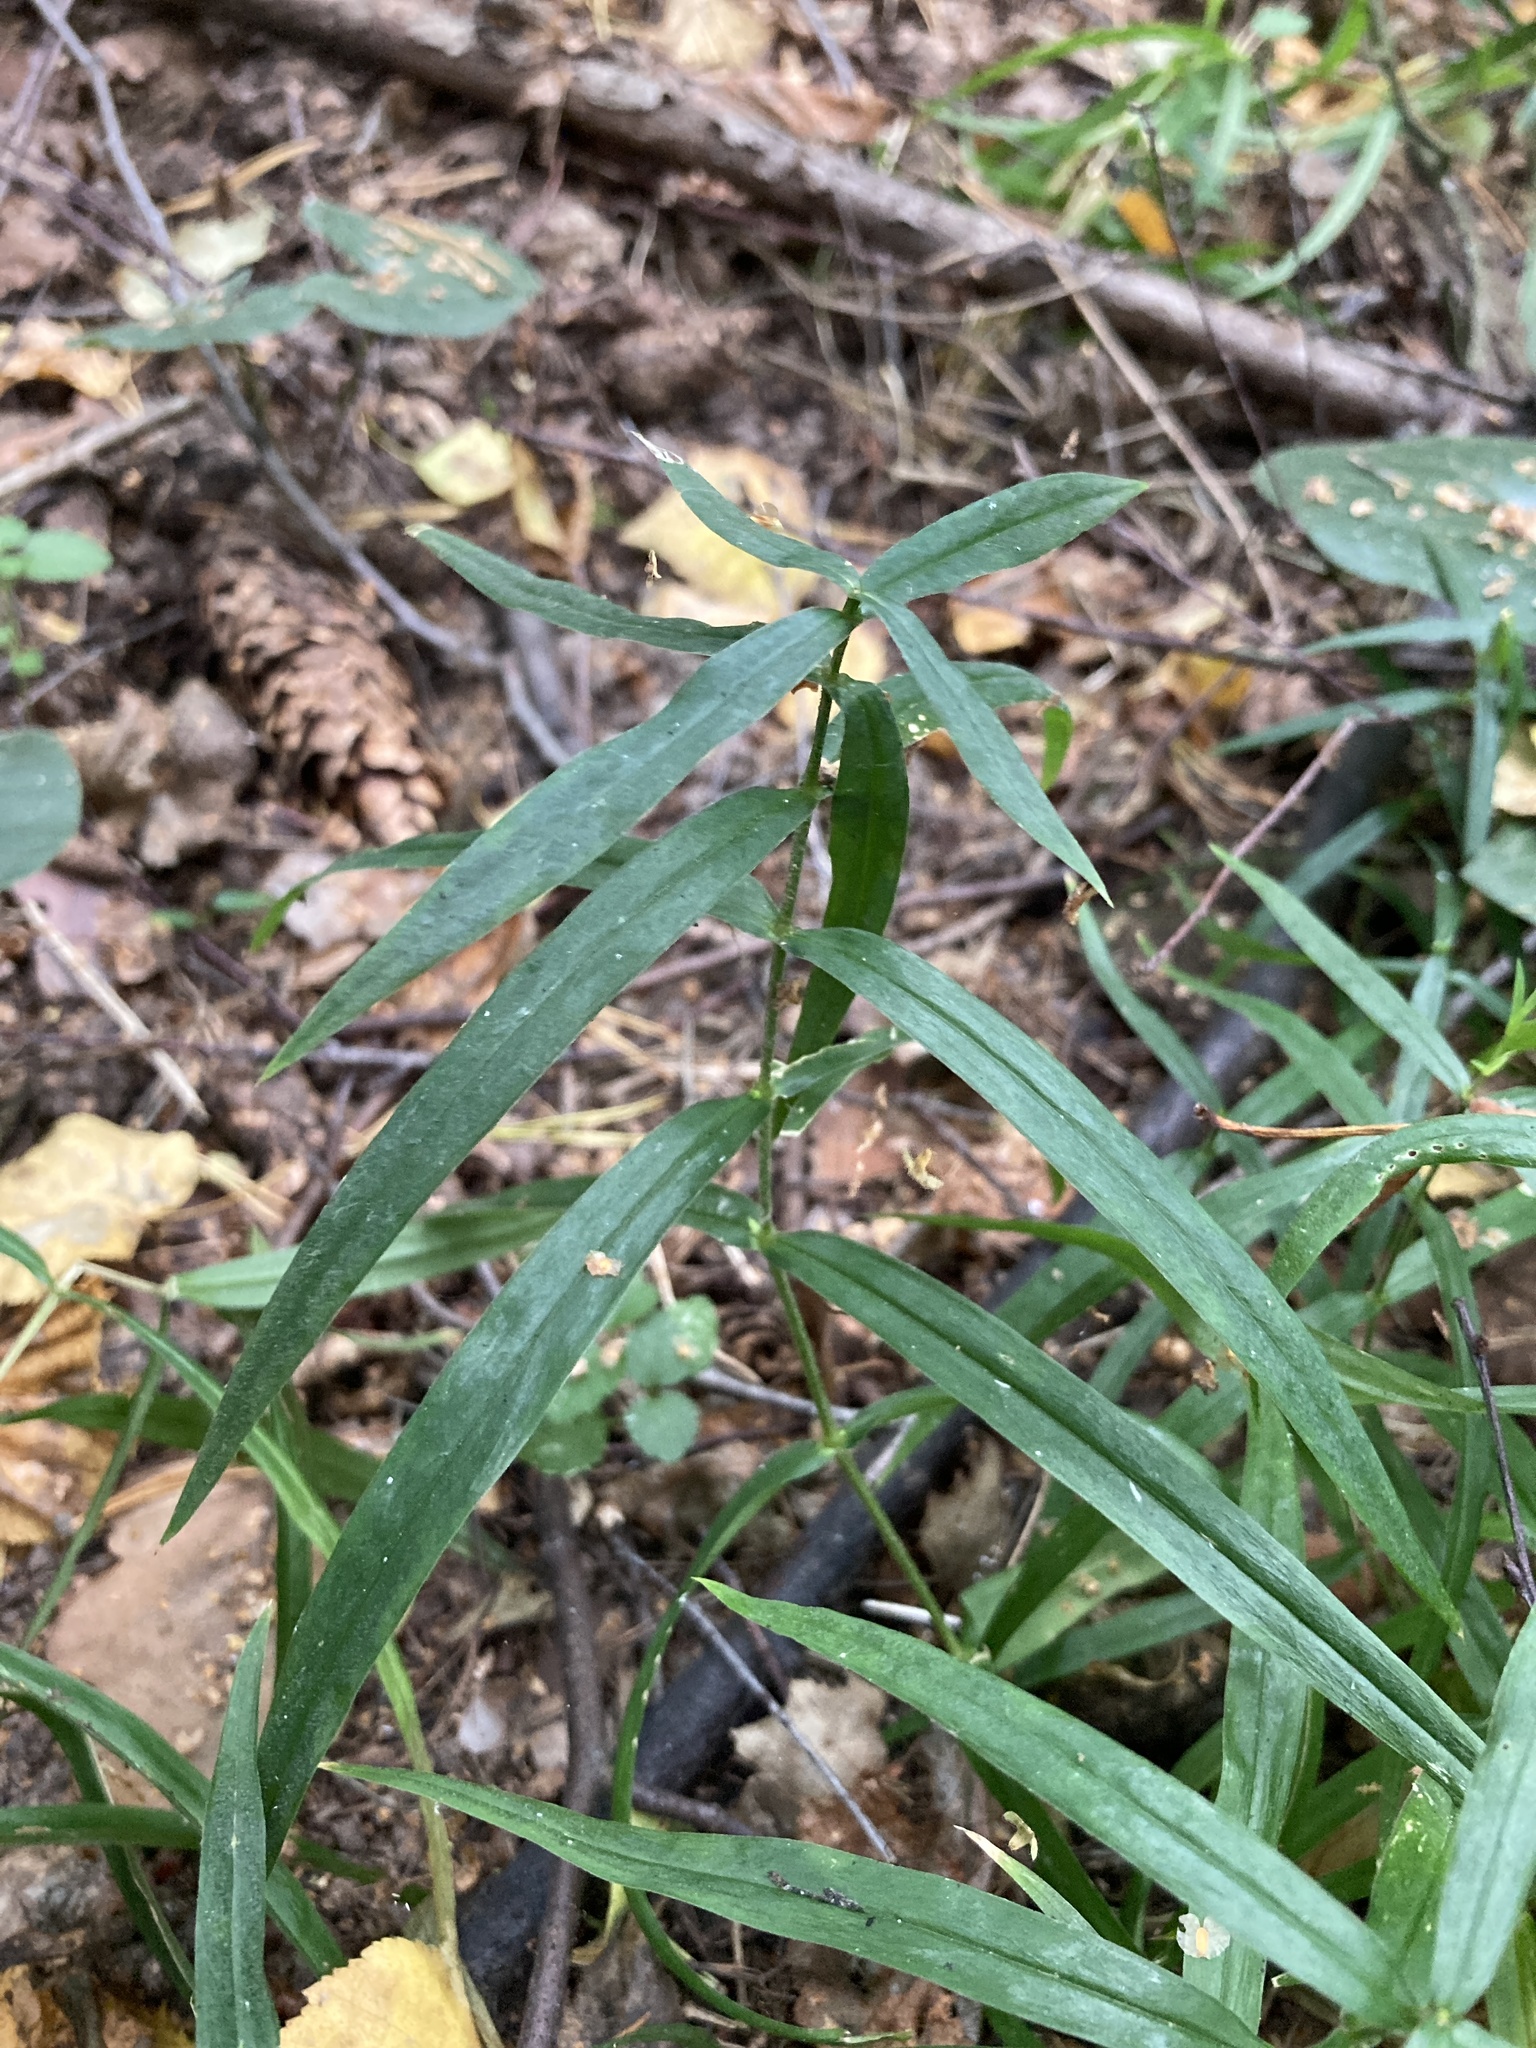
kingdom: Plantae
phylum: Tracheophyta
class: Magnoliopsida
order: Caryophyllales
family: Caryophyllaceae
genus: Rabelera
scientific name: Rabelera holostea
